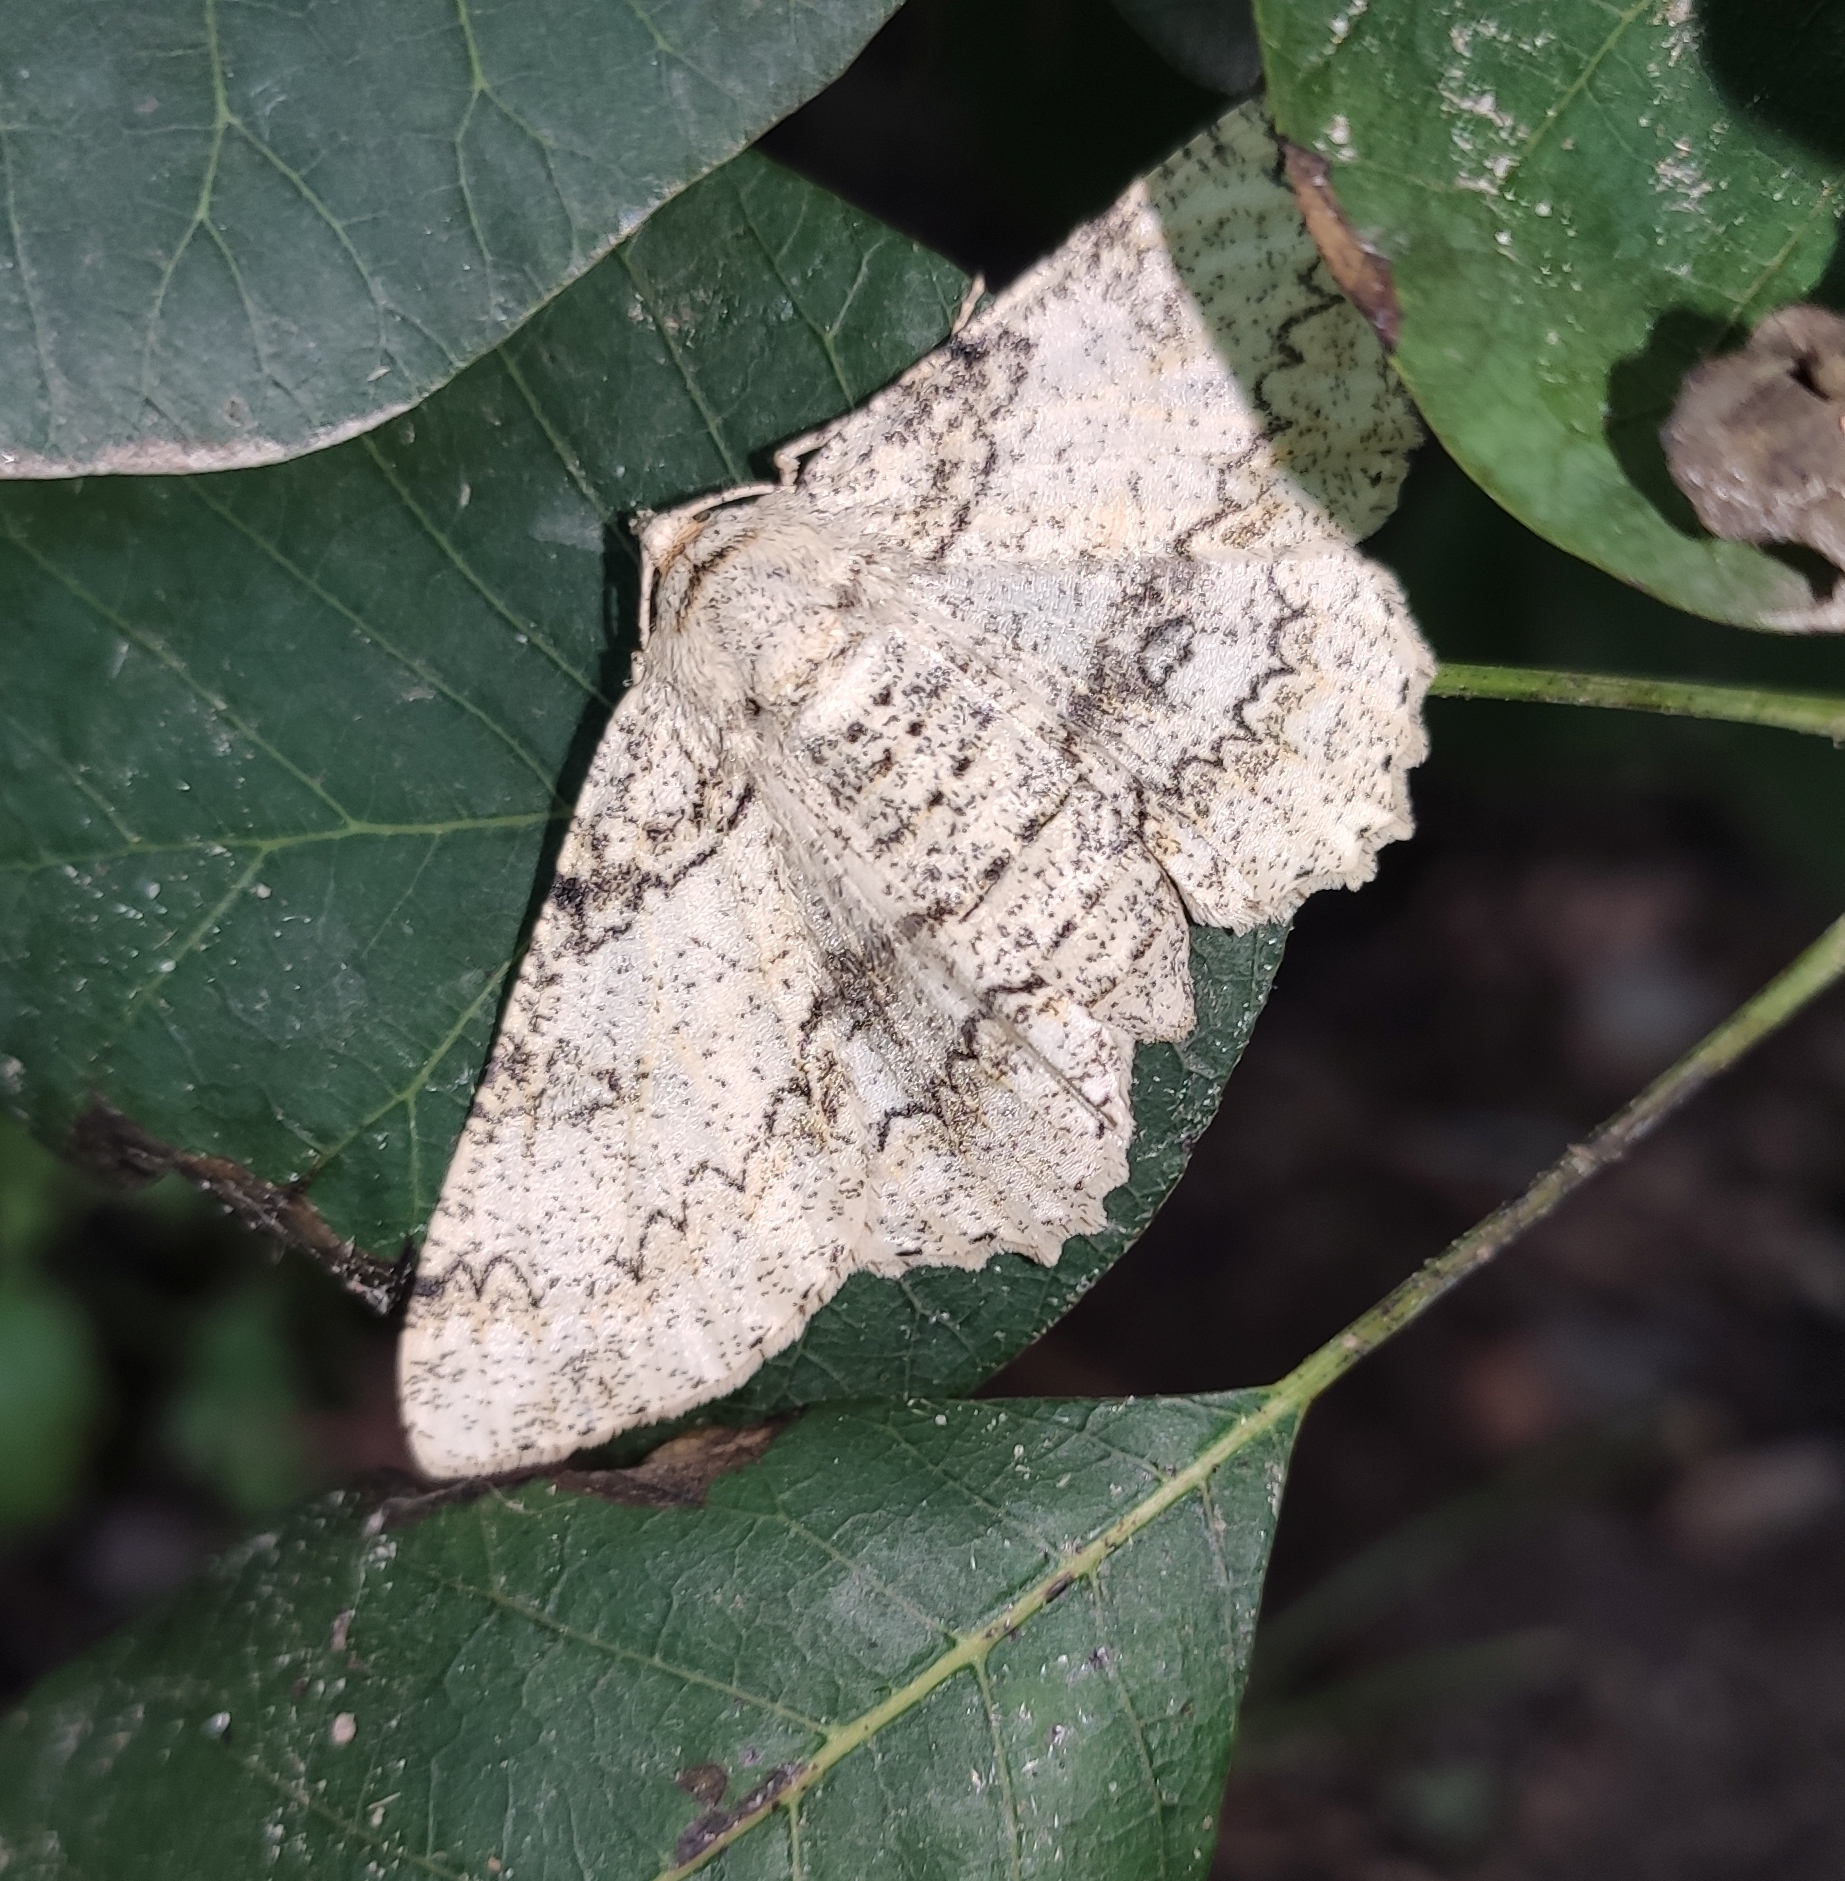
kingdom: Animalia
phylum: Arthropoda
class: Insecta
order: Lepidoptera
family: Geometridae
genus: Ascotis
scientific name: Ascotis selenaria
